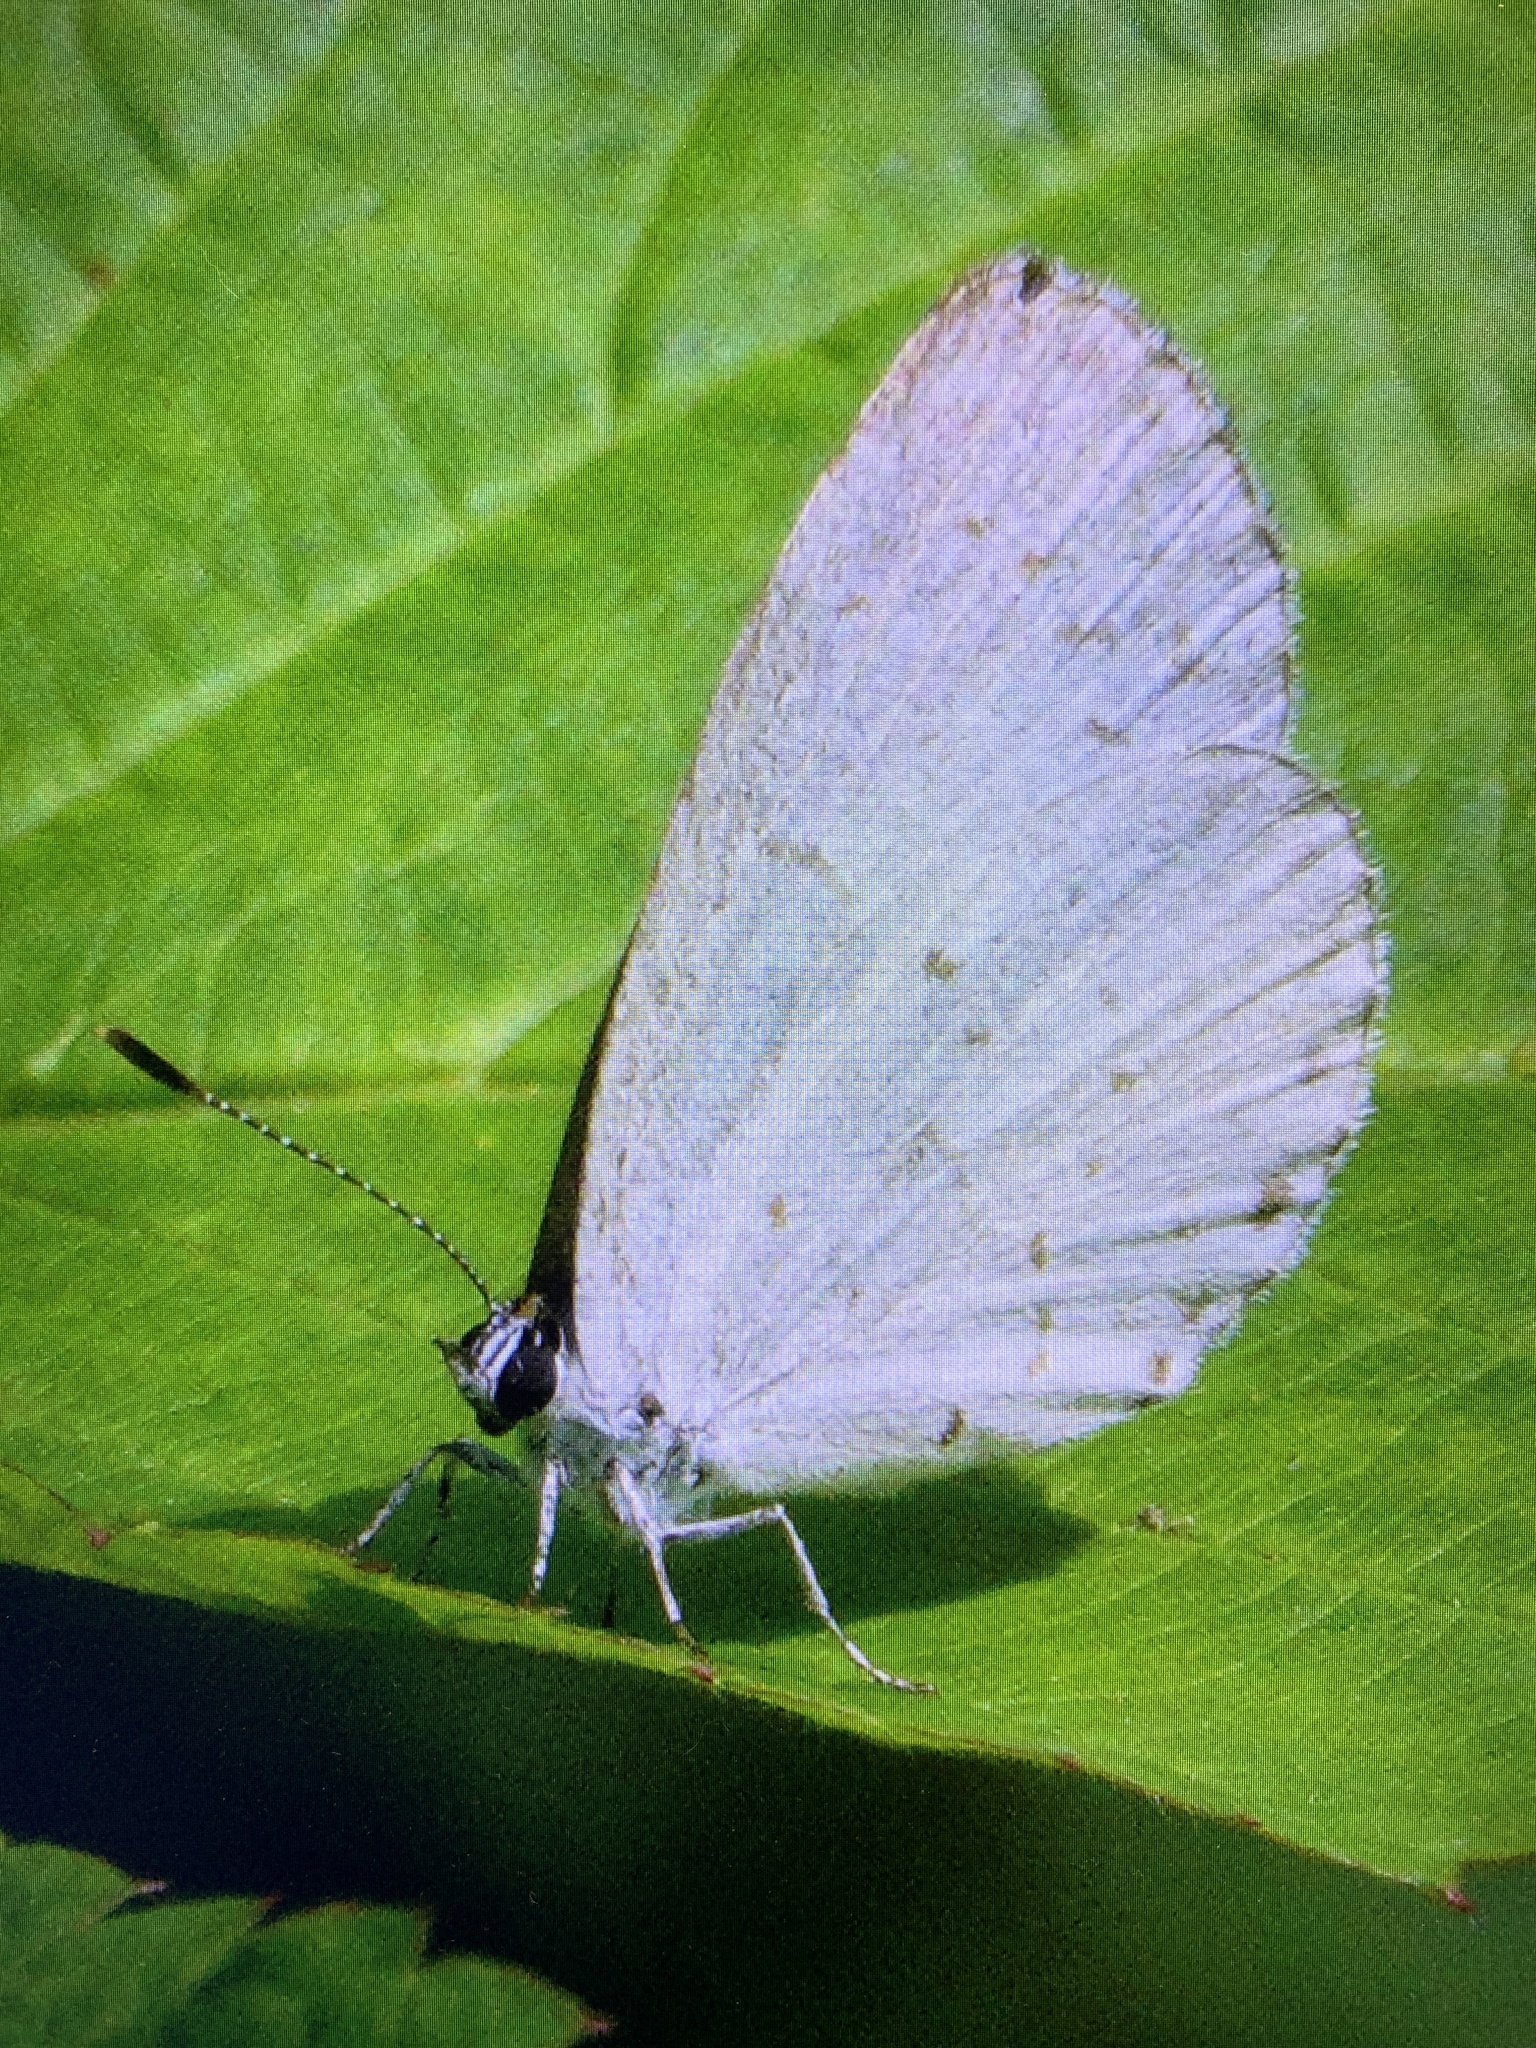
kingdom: Animalia
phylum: Arthropoda
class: Insecta
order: Lepidoptera
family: Lycaenidae
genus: Cyaniris
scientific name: Cyaniris neglecta
